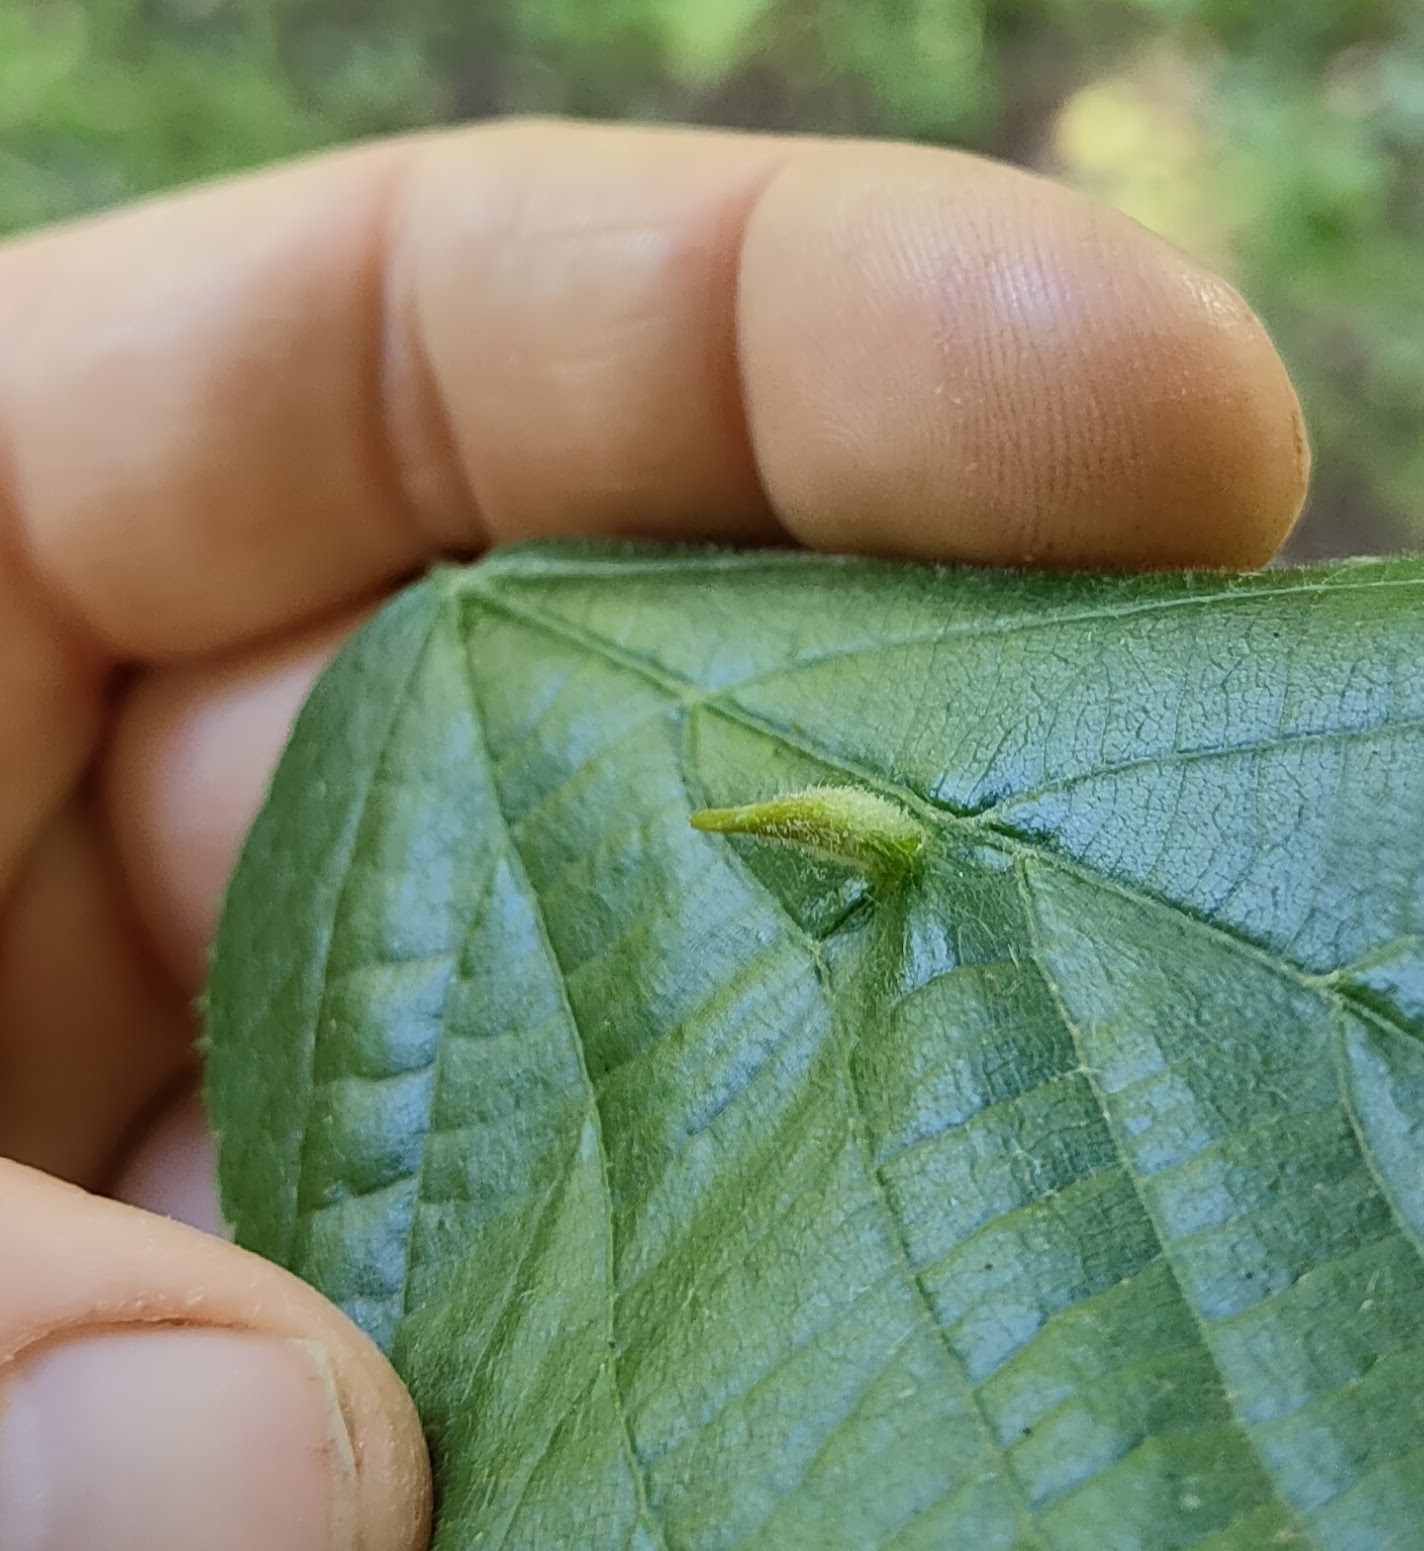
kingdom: Animalia
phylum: Arthropoda
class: Arachnida
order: Trombidiformes
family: Eriophyidae
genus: Eriophyes
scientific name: Eriophyes tiliae
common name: Red nail gall mite
